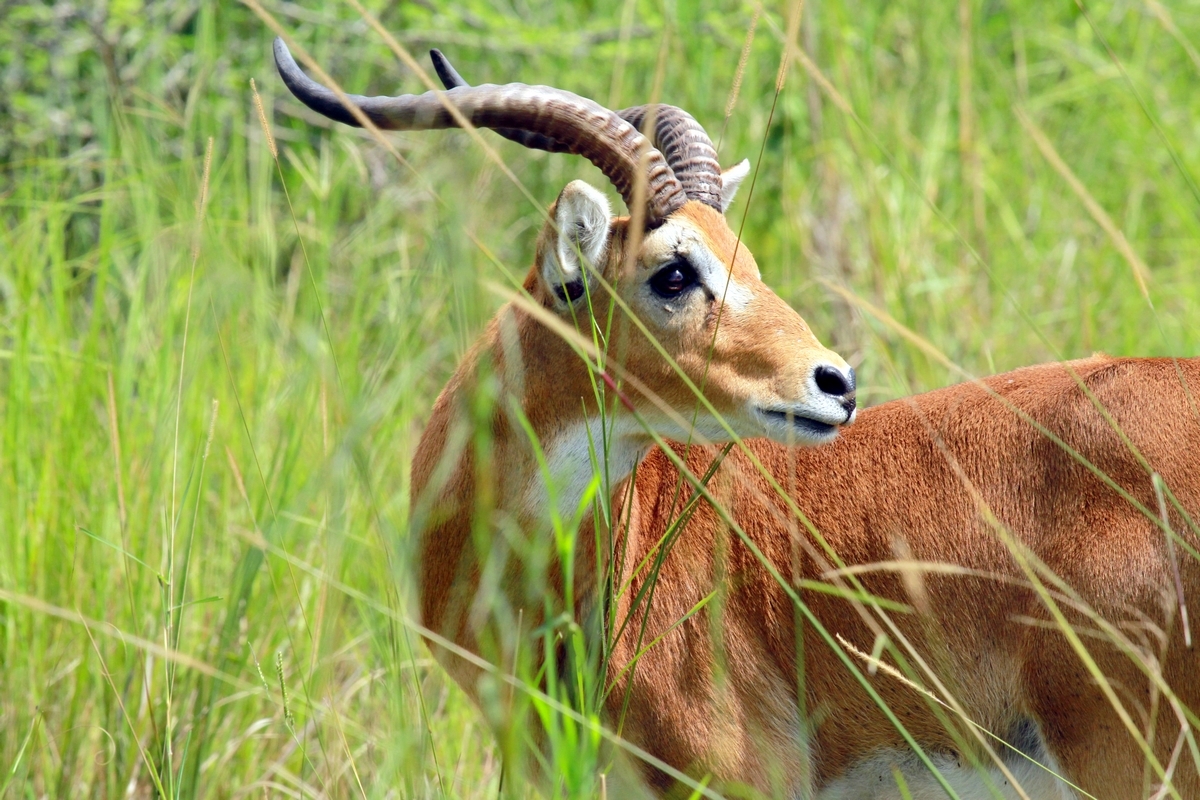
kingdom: Animalia
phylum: Chordata
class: Mammalia
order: Artiodactyla
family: Bovidae
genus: Kobus
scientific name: Kobus kob
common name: Kob
